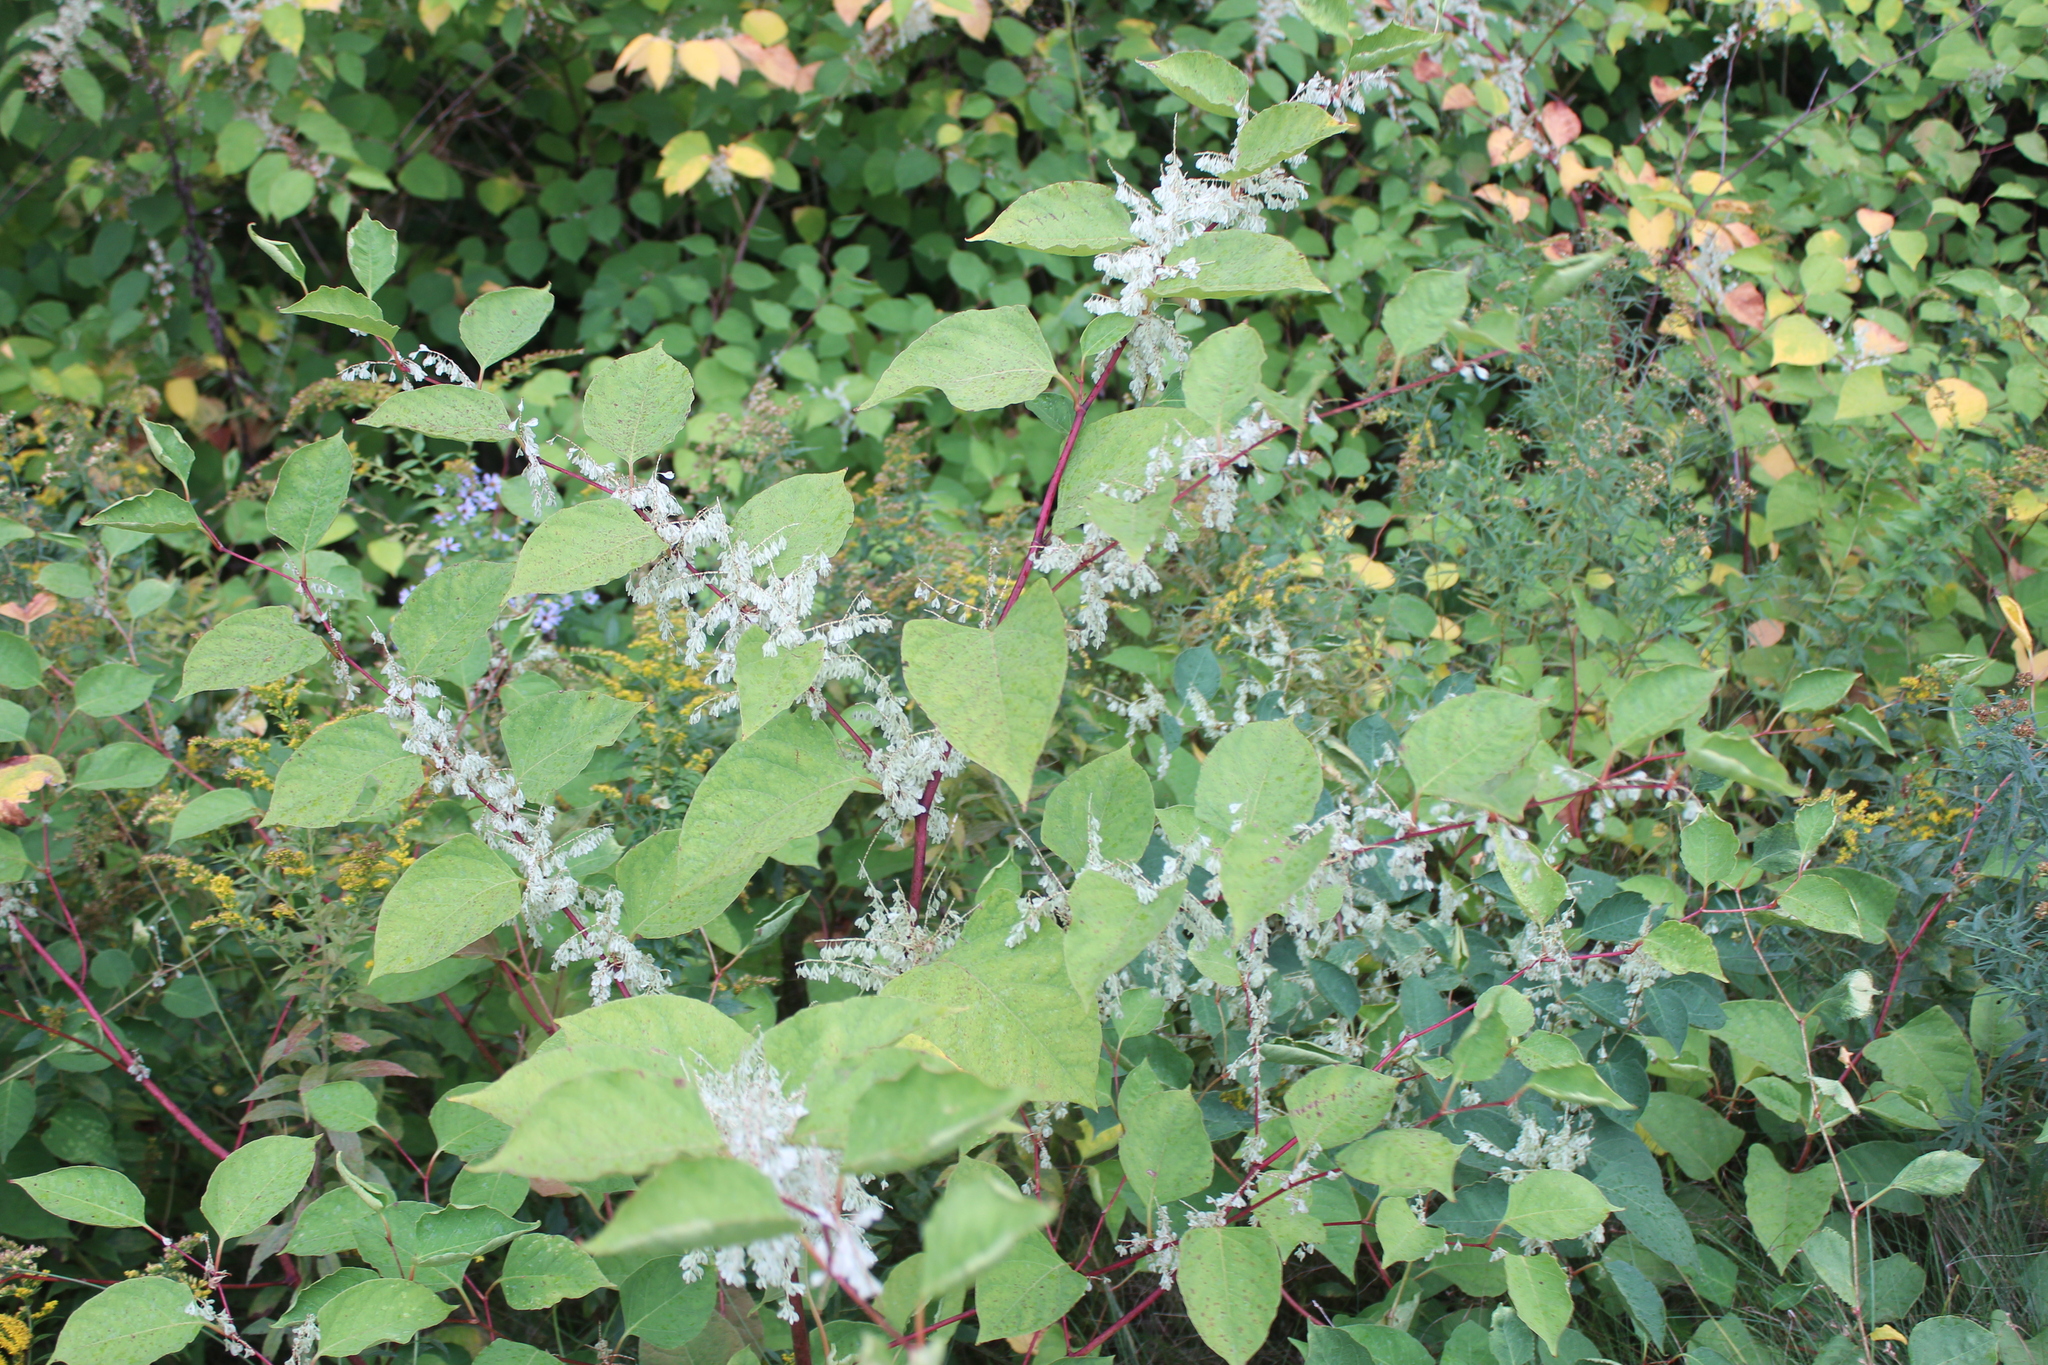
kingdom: Plantae
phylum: Tracheophyta
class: Magnoliopsida
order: Caryophyllales
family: Polygonaceae
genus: Reynoutria
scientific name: Reynoutria japonica
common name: Japanese knotweed
